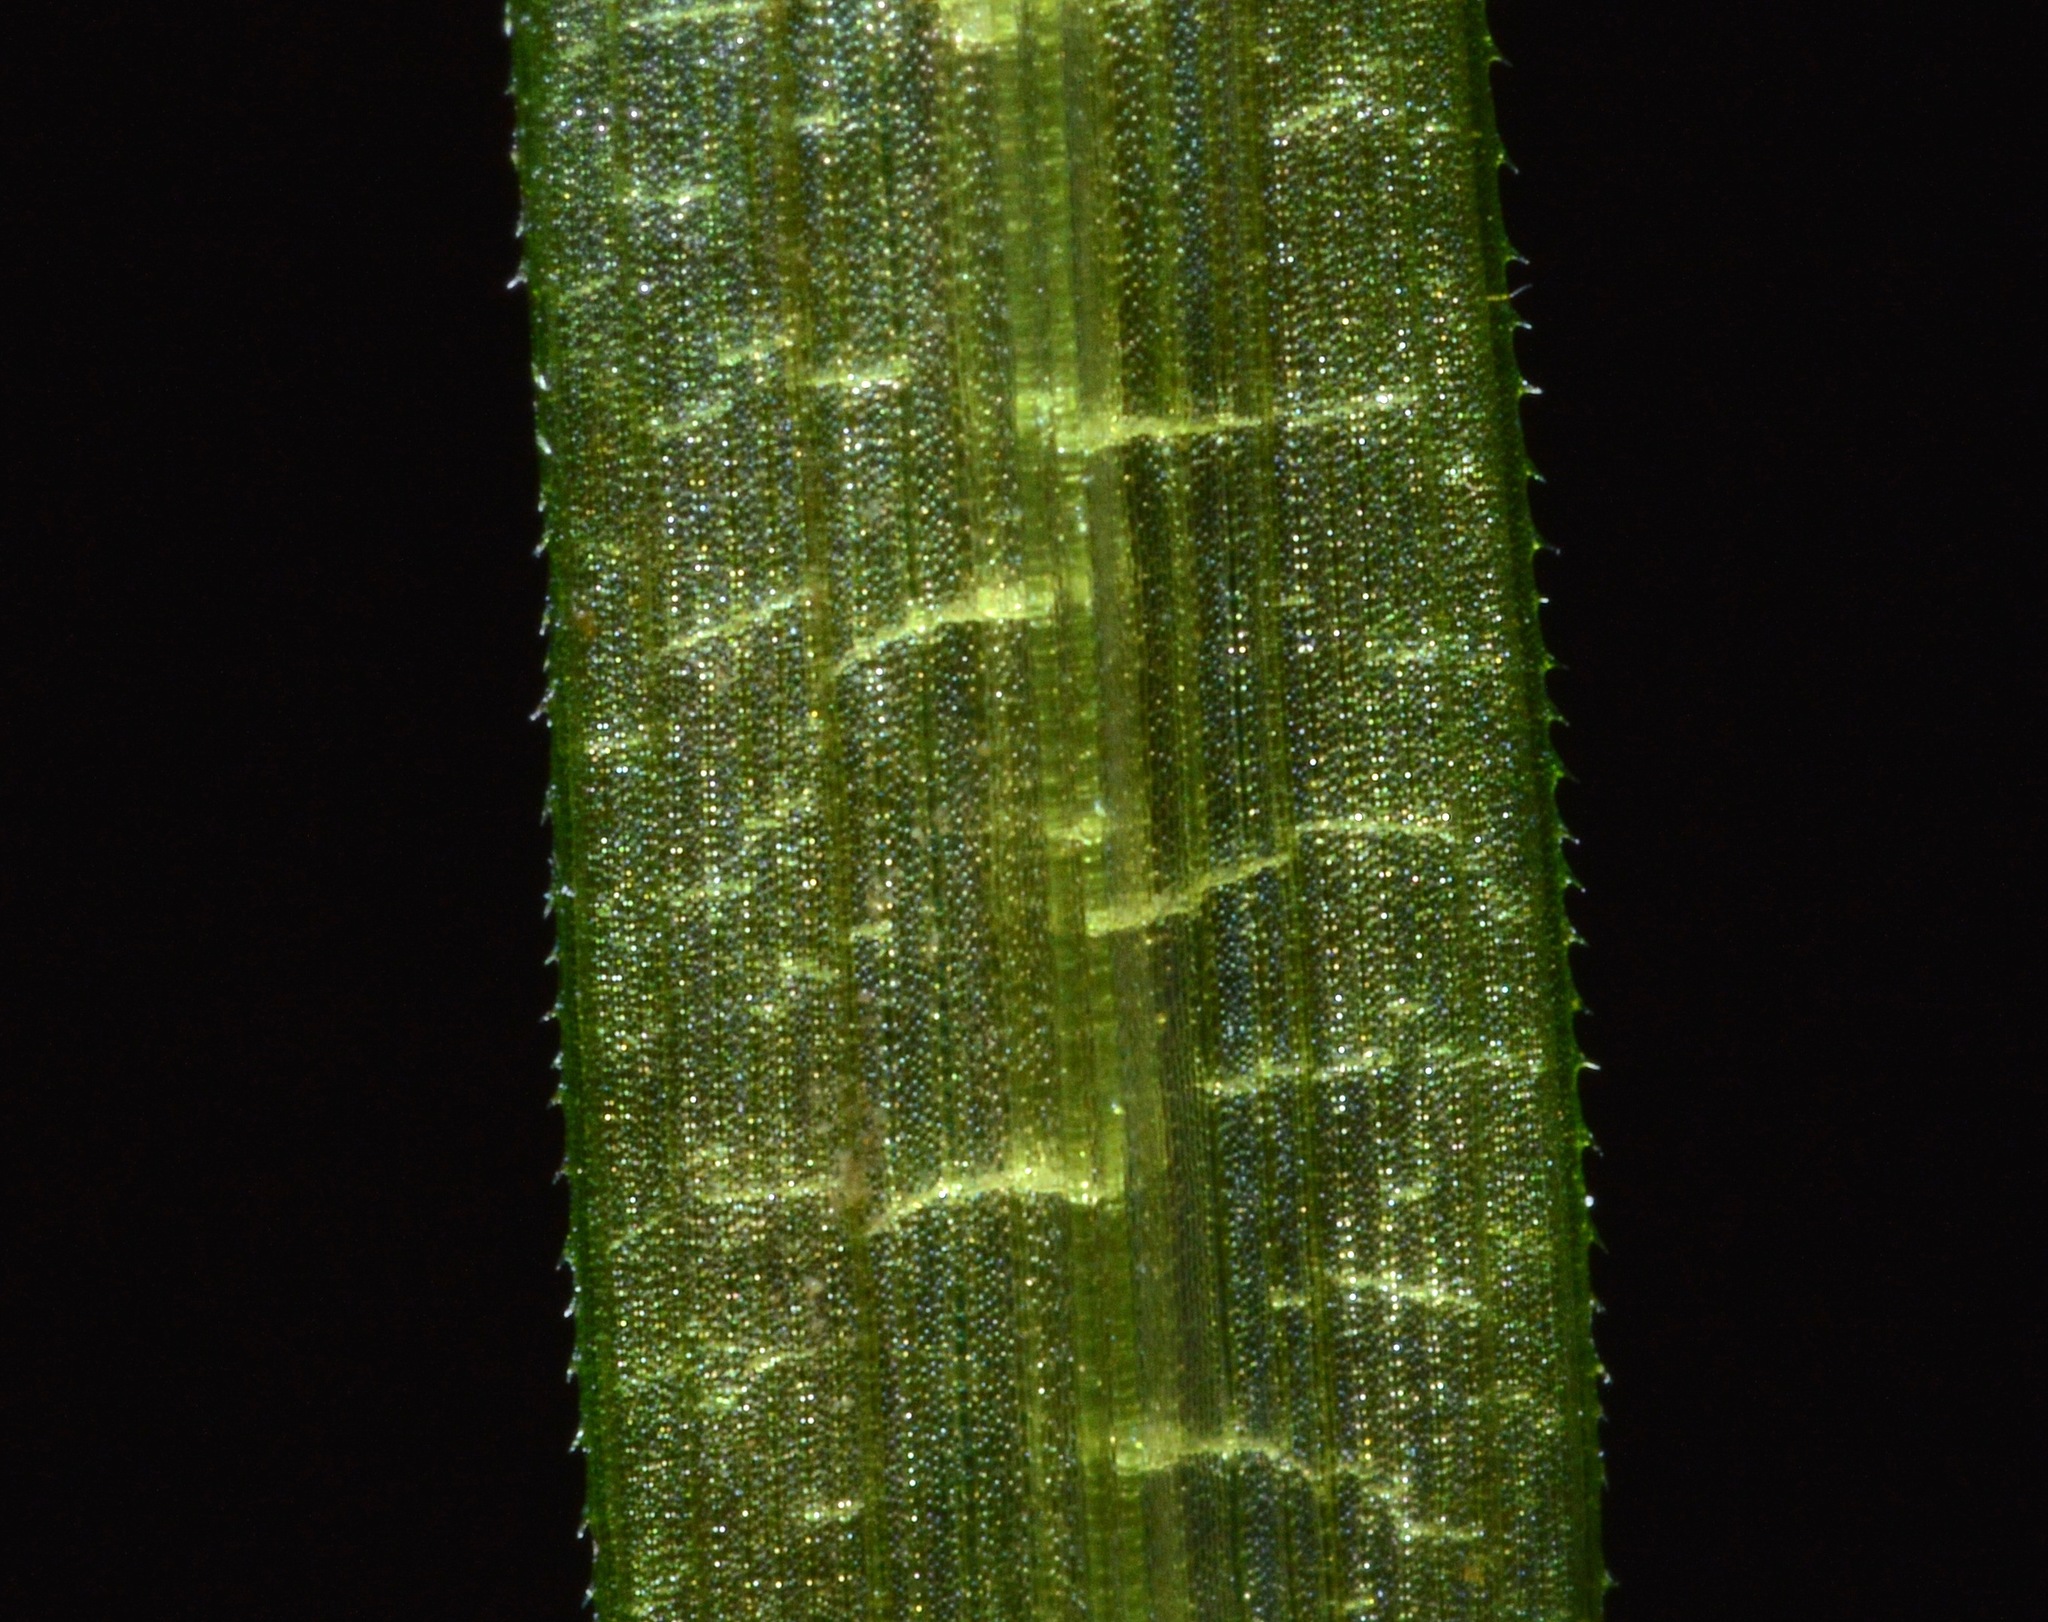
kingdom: Plantae
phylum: Tracheophyta
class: Liliopsida
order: Alismatales
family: Hydrocharitaceae
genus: Blyxa
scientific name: Blyxa aubertii
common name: Roundfruit blyxa
